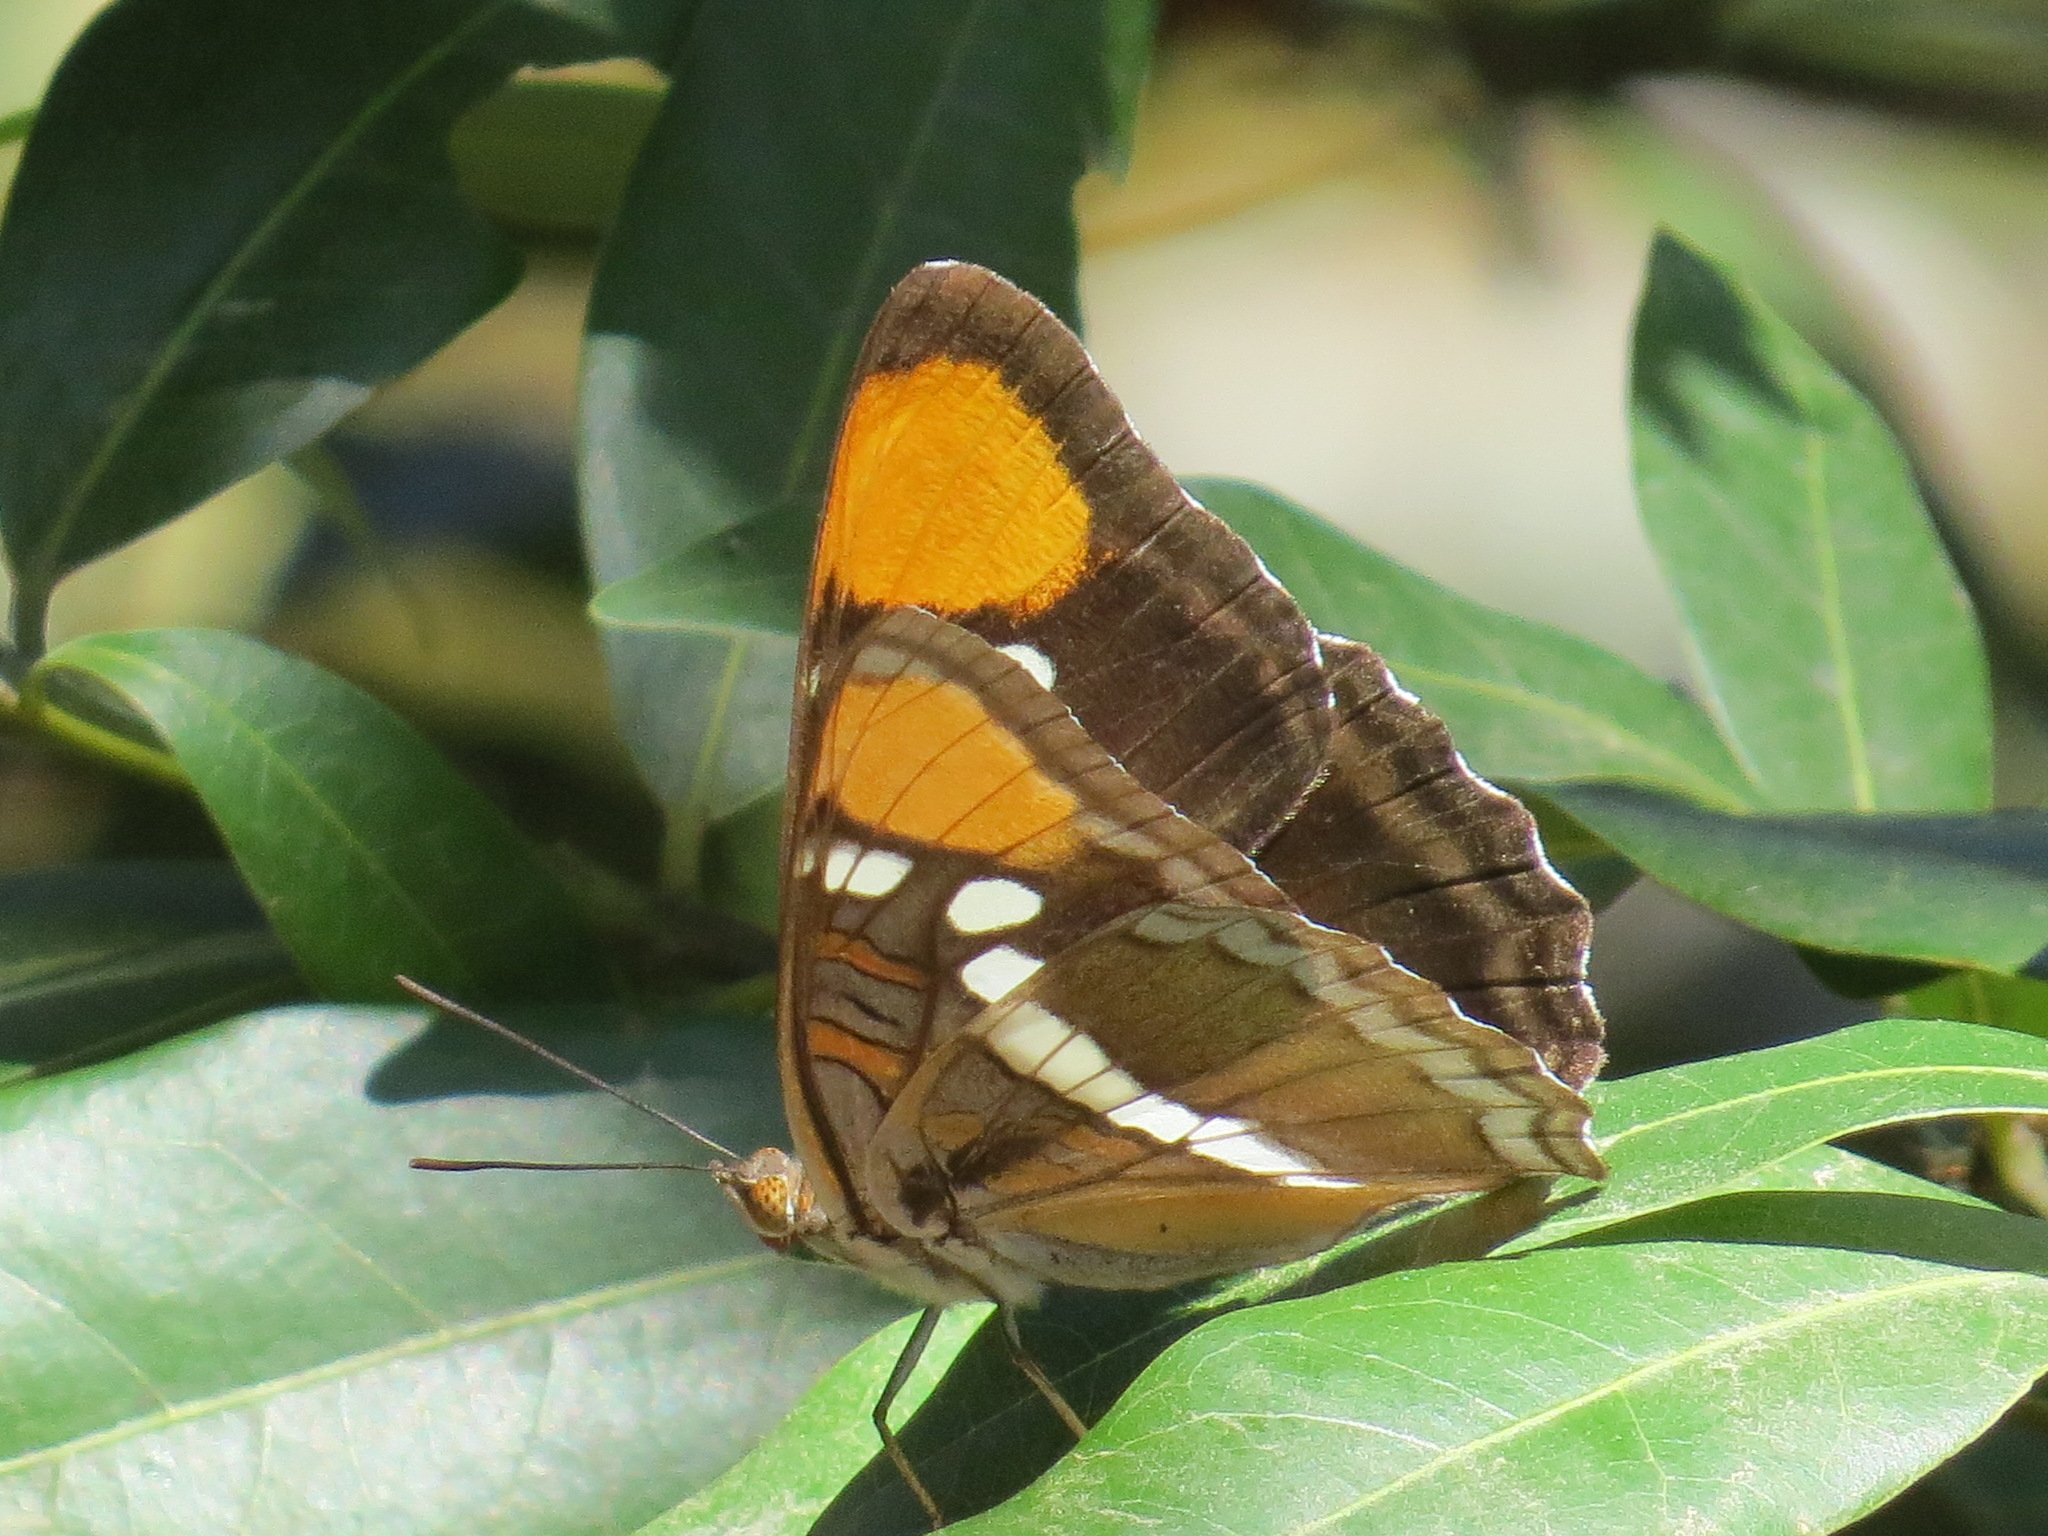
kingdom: Animalia
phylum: Arthropoda
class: Insecta
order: Lepidoptera
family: Nymphalidae
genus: Limenitis
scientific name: Limenitis bredowii
